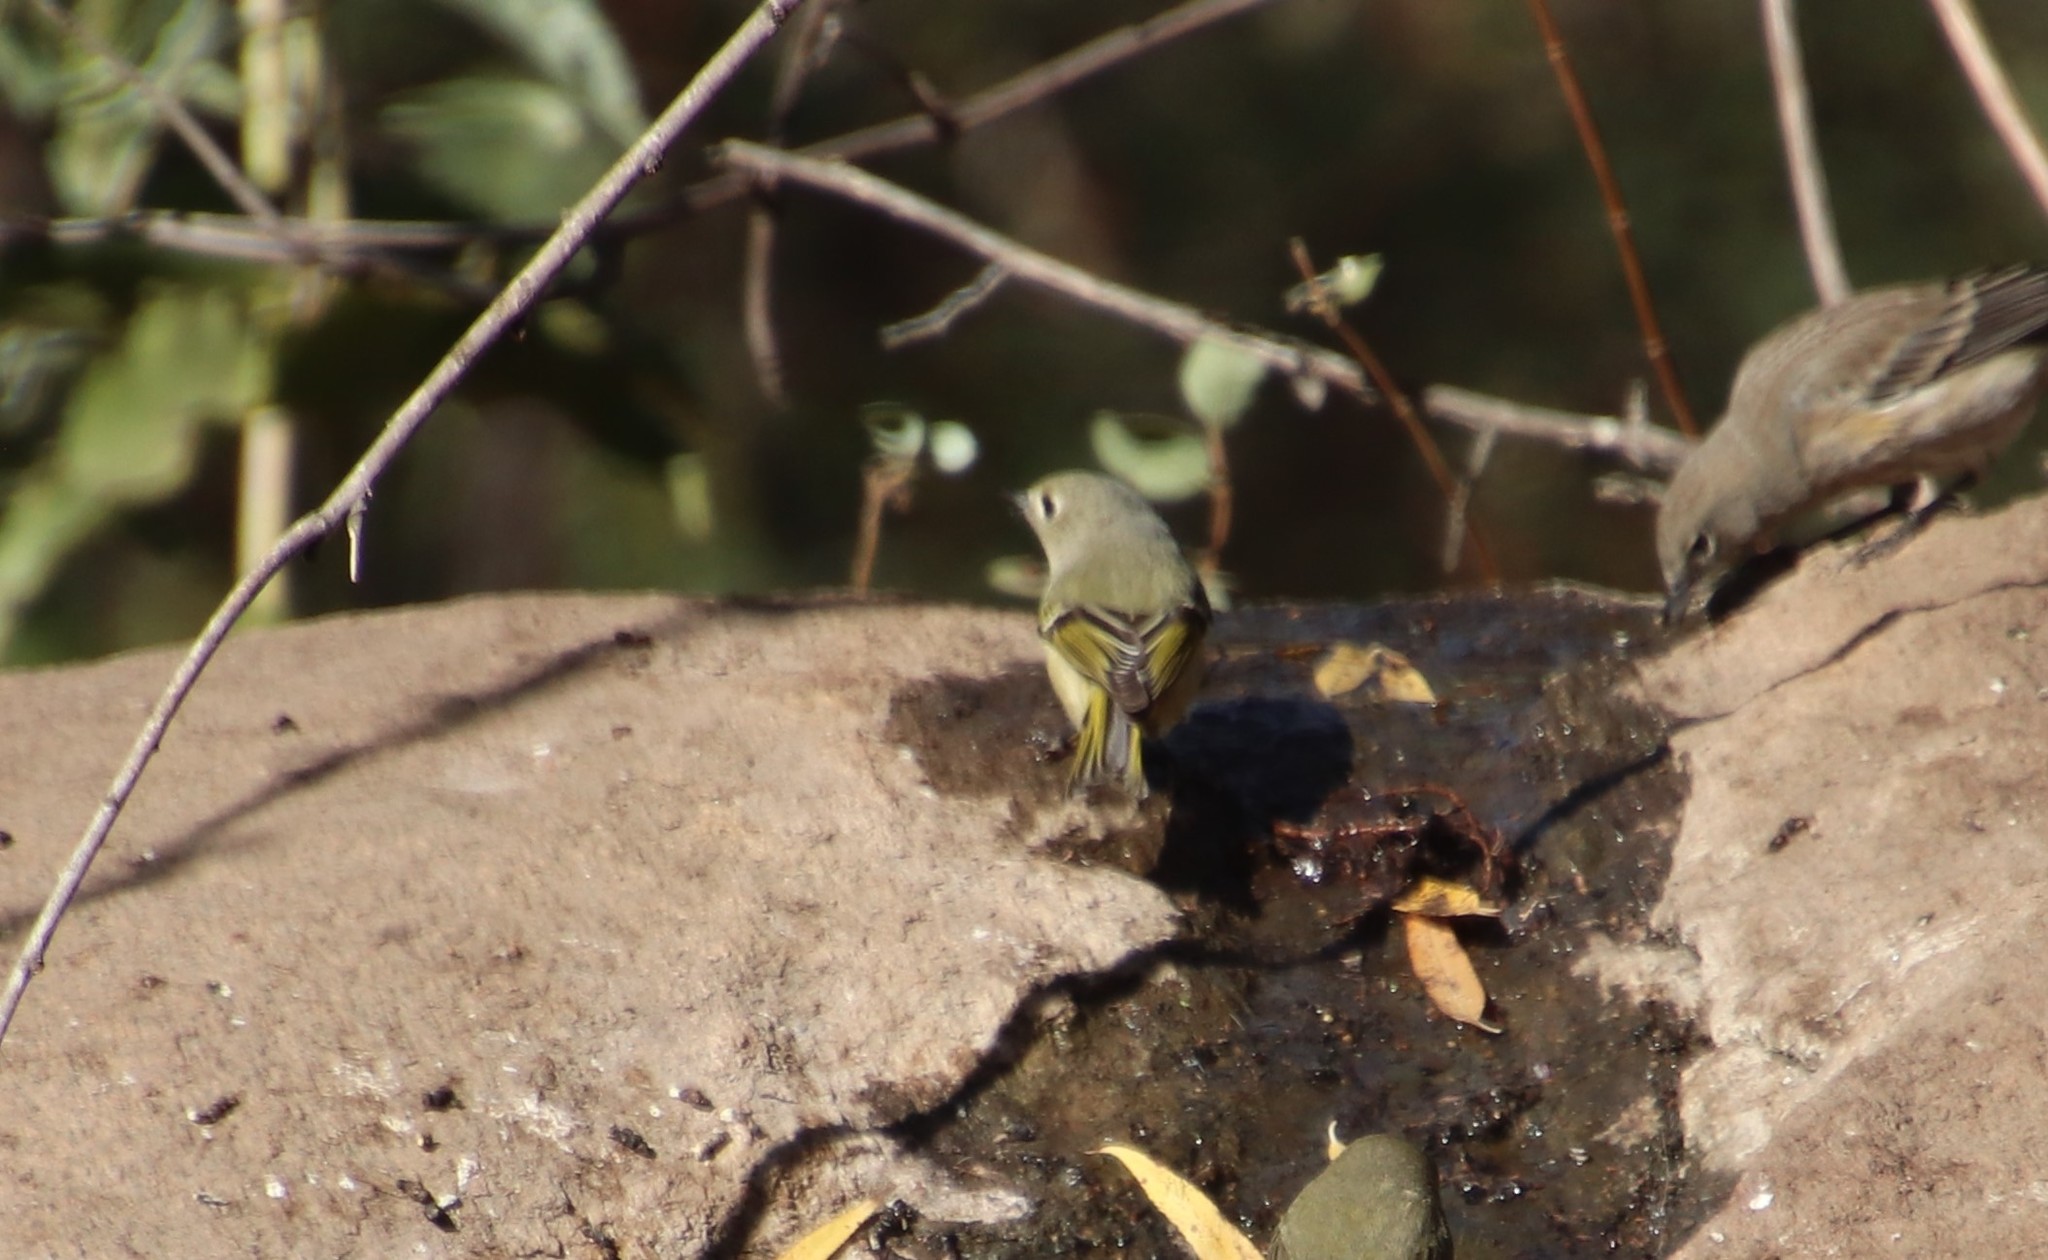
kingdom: Animalia
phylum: Chordata
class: Aves
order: Passeriformes
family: Regulidae
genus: Regulus
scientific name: Regulus calendula
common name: Ruby-crowned kinglet
